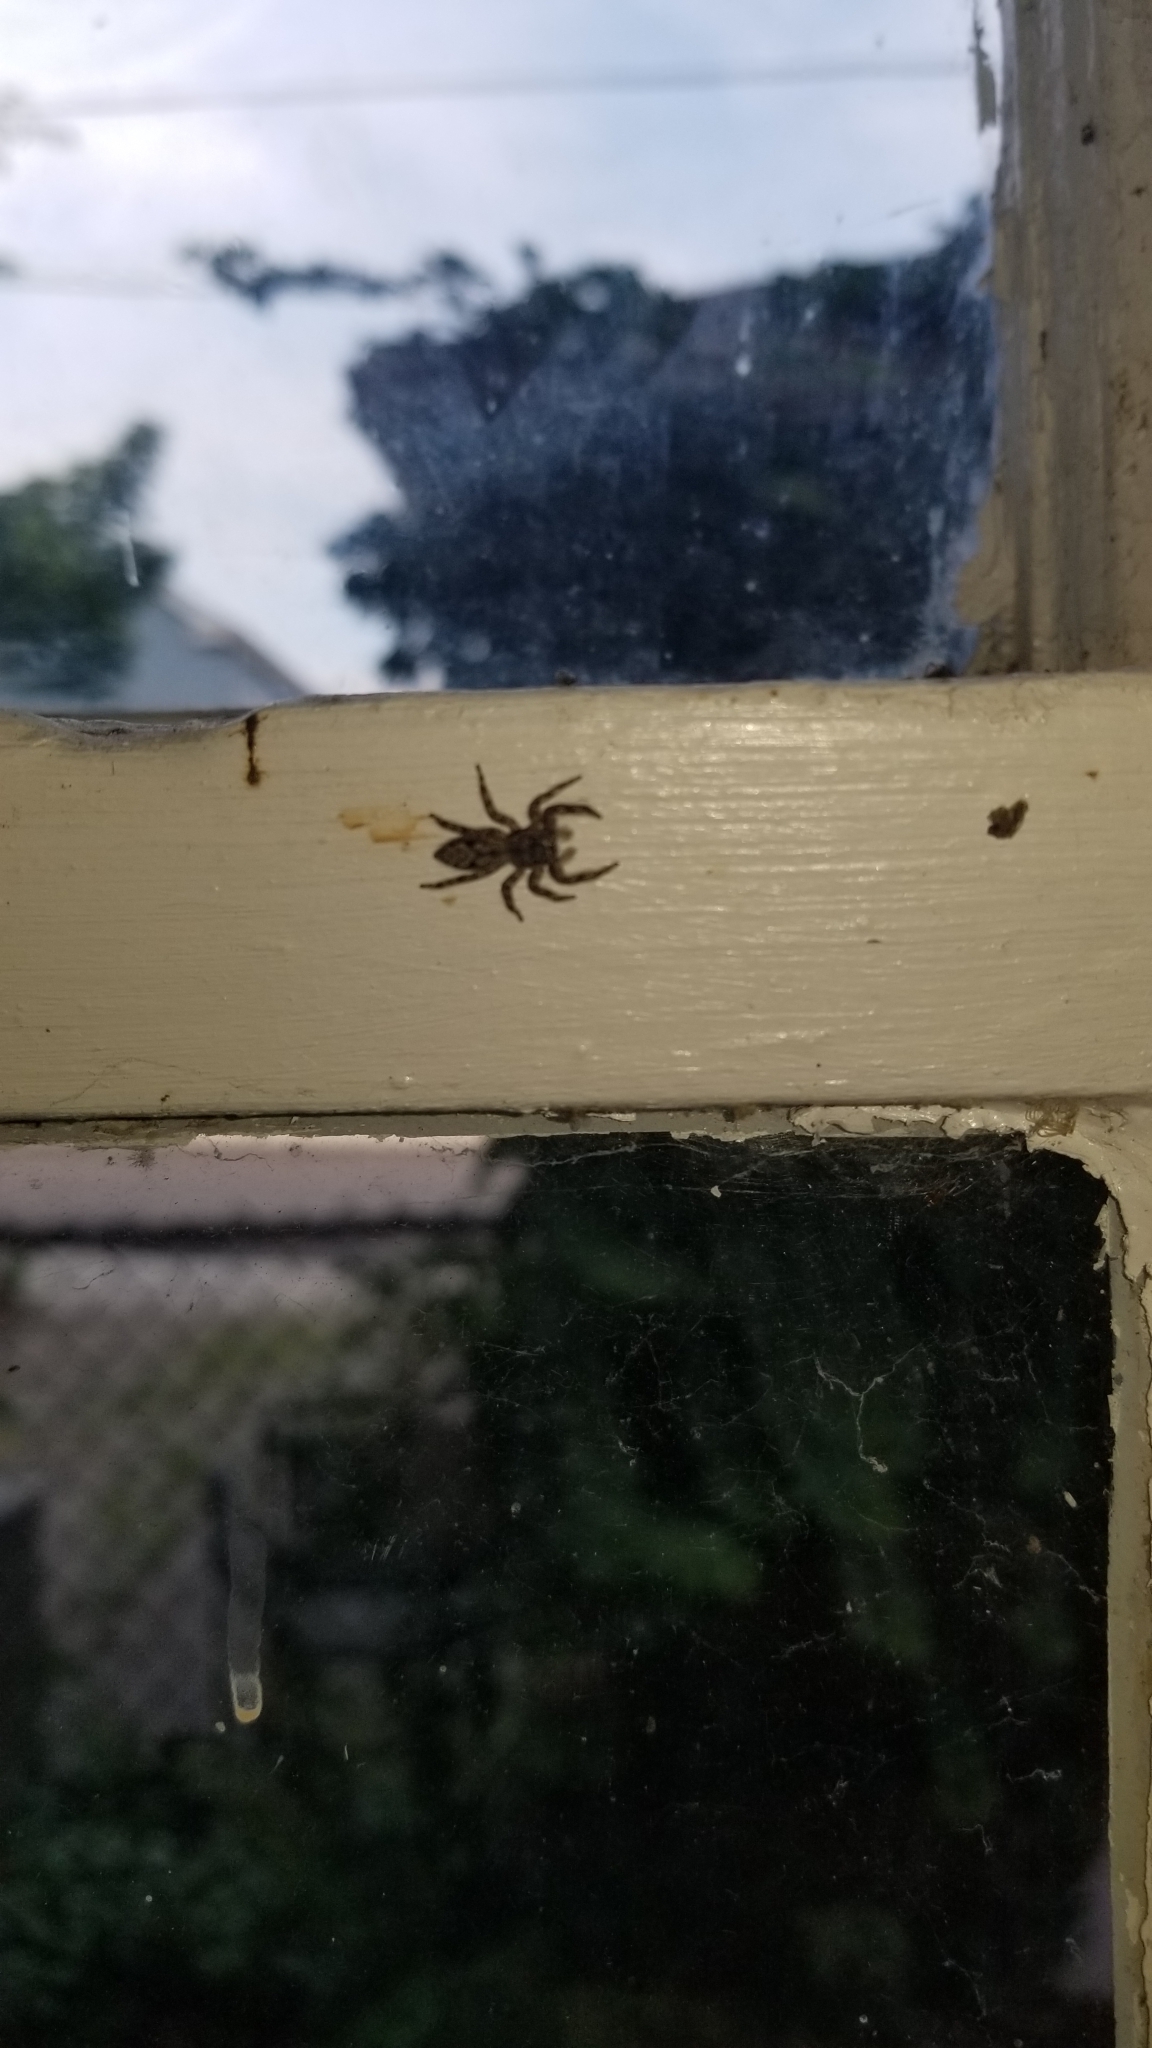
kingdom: Animalia
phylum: Arthropoda
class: Arachnida
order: Araneae
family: Salticidae
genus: Platycryptus
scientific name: Platycryptus undatus
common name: Tan jumping spider
